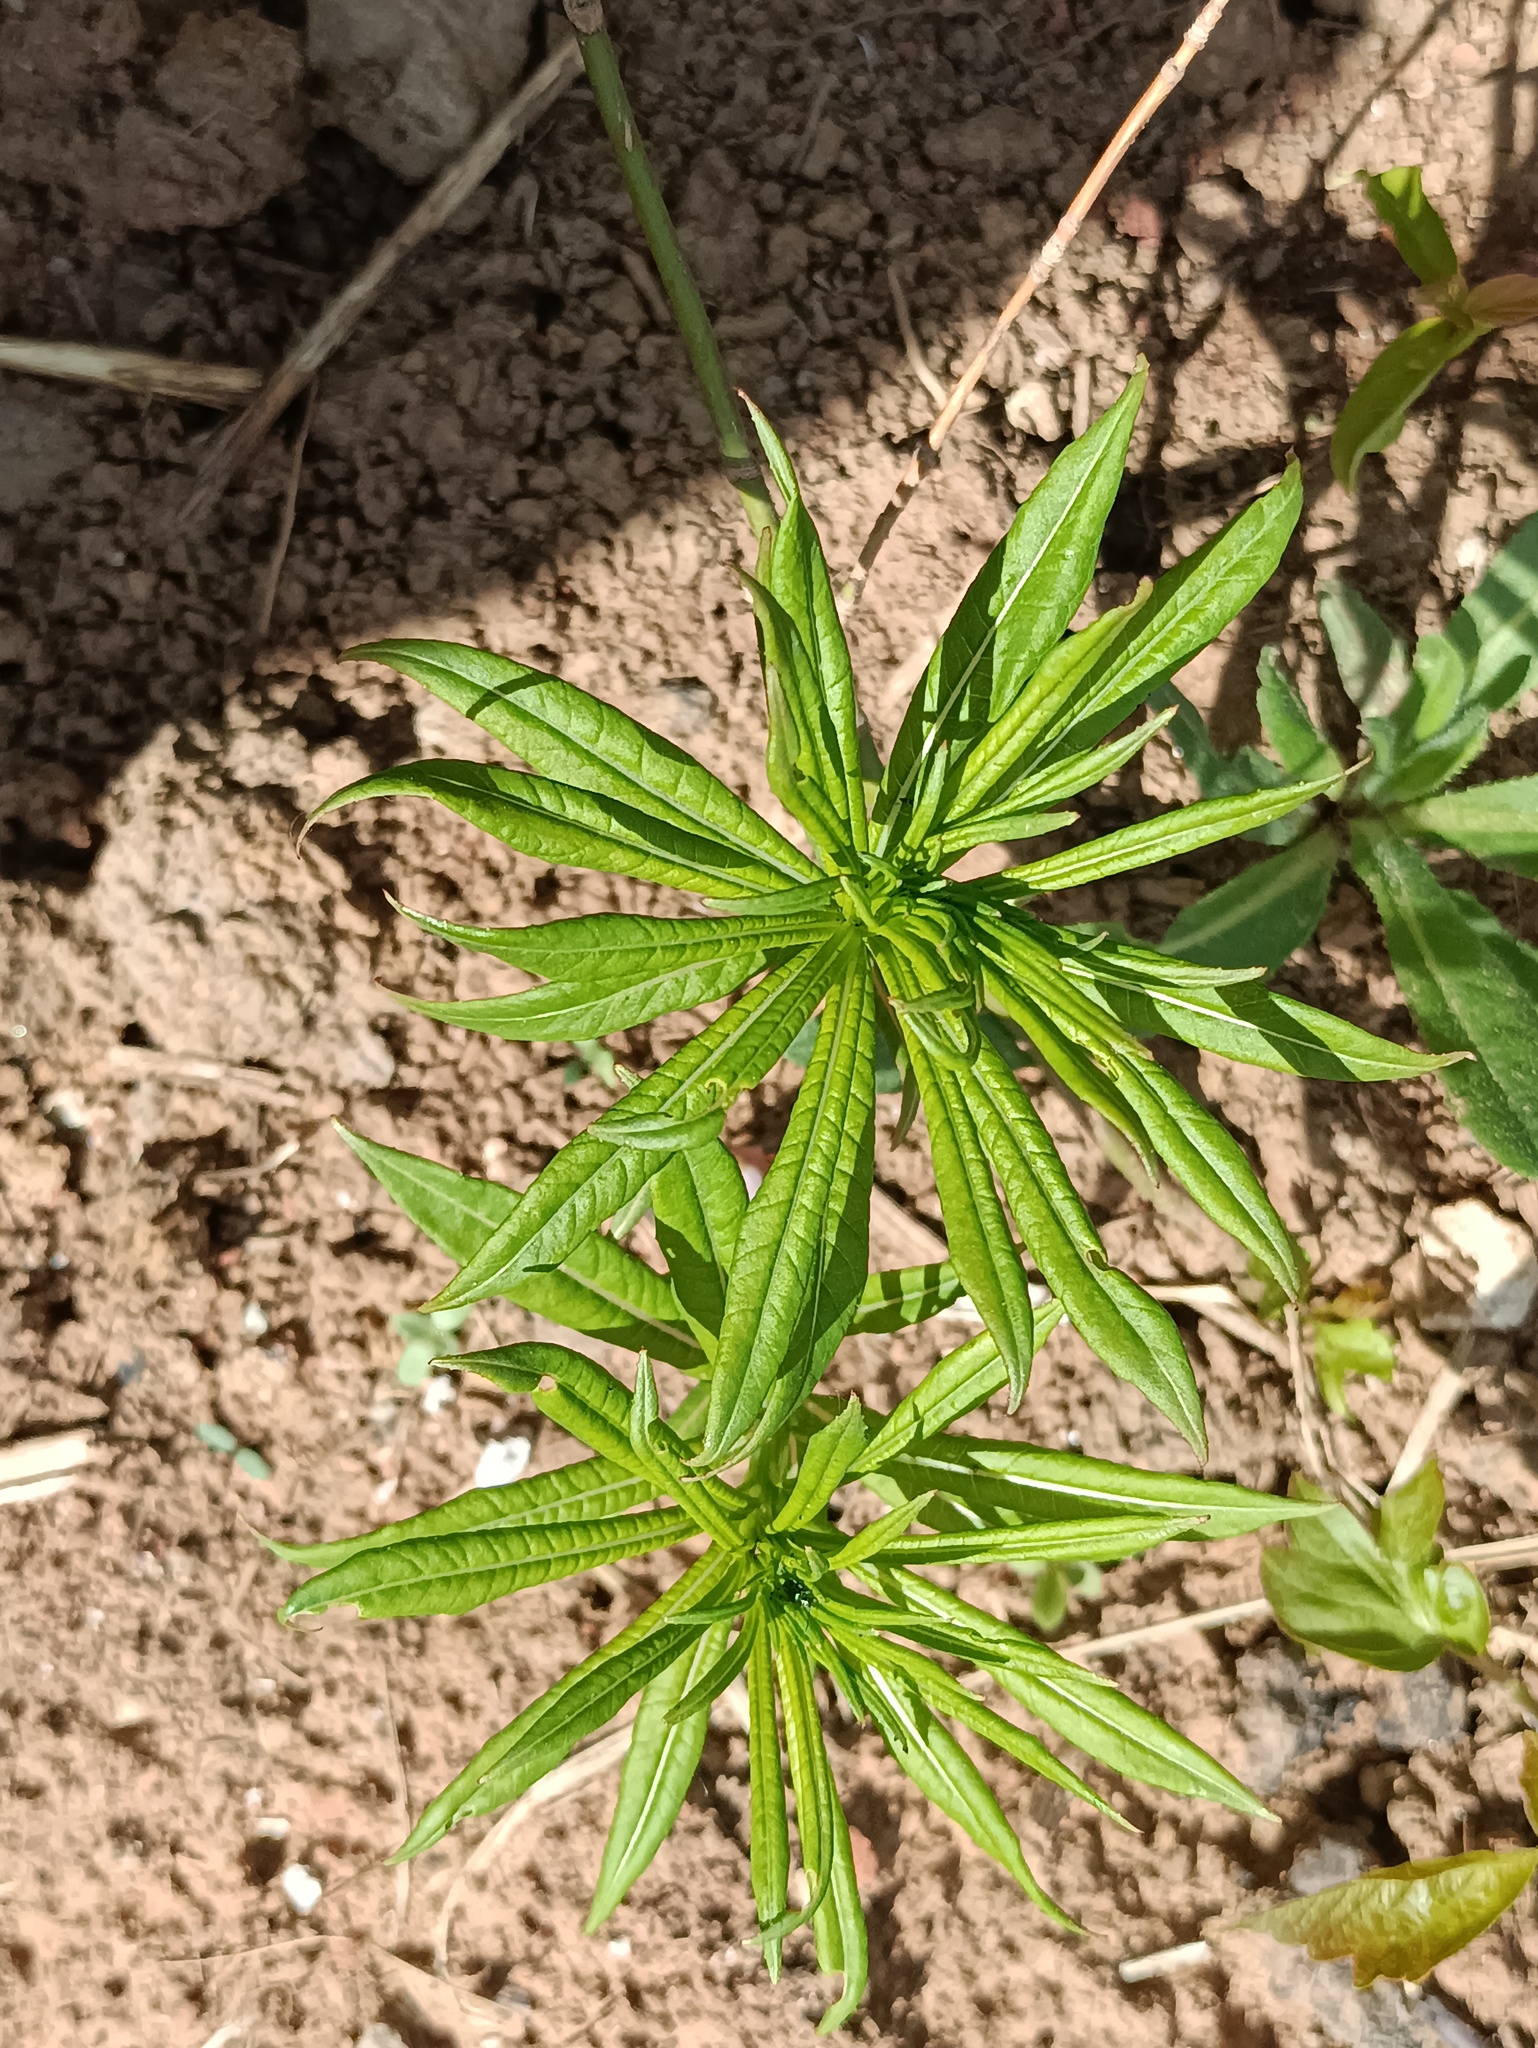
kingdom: Plantae
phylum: Tracheophyta
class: Magnoliopsida
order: Myrtales
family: Onagraceae
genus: Chamaenerion
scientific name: Chamaenerion angustifolium
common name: Fireweed
